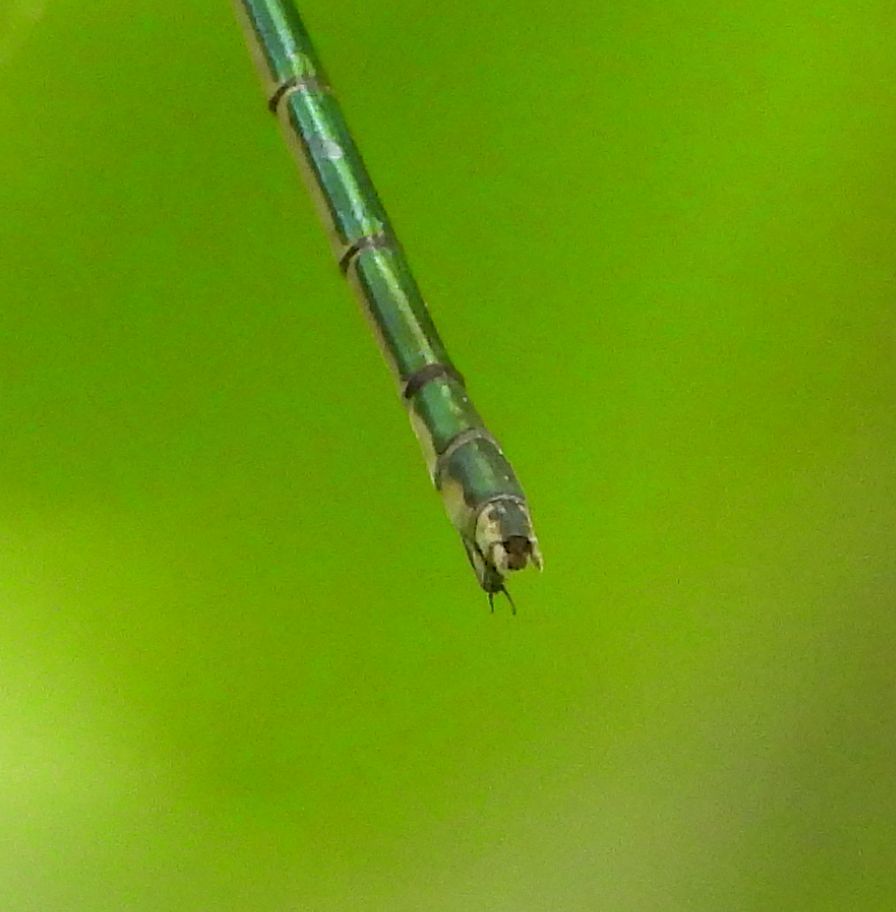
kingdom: Animalia
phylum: Arthropoda
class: Insecta
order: Odonata
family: Lestidae
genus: Lestes
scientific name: Lestes inaequalis
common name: Elegant spreadwing
